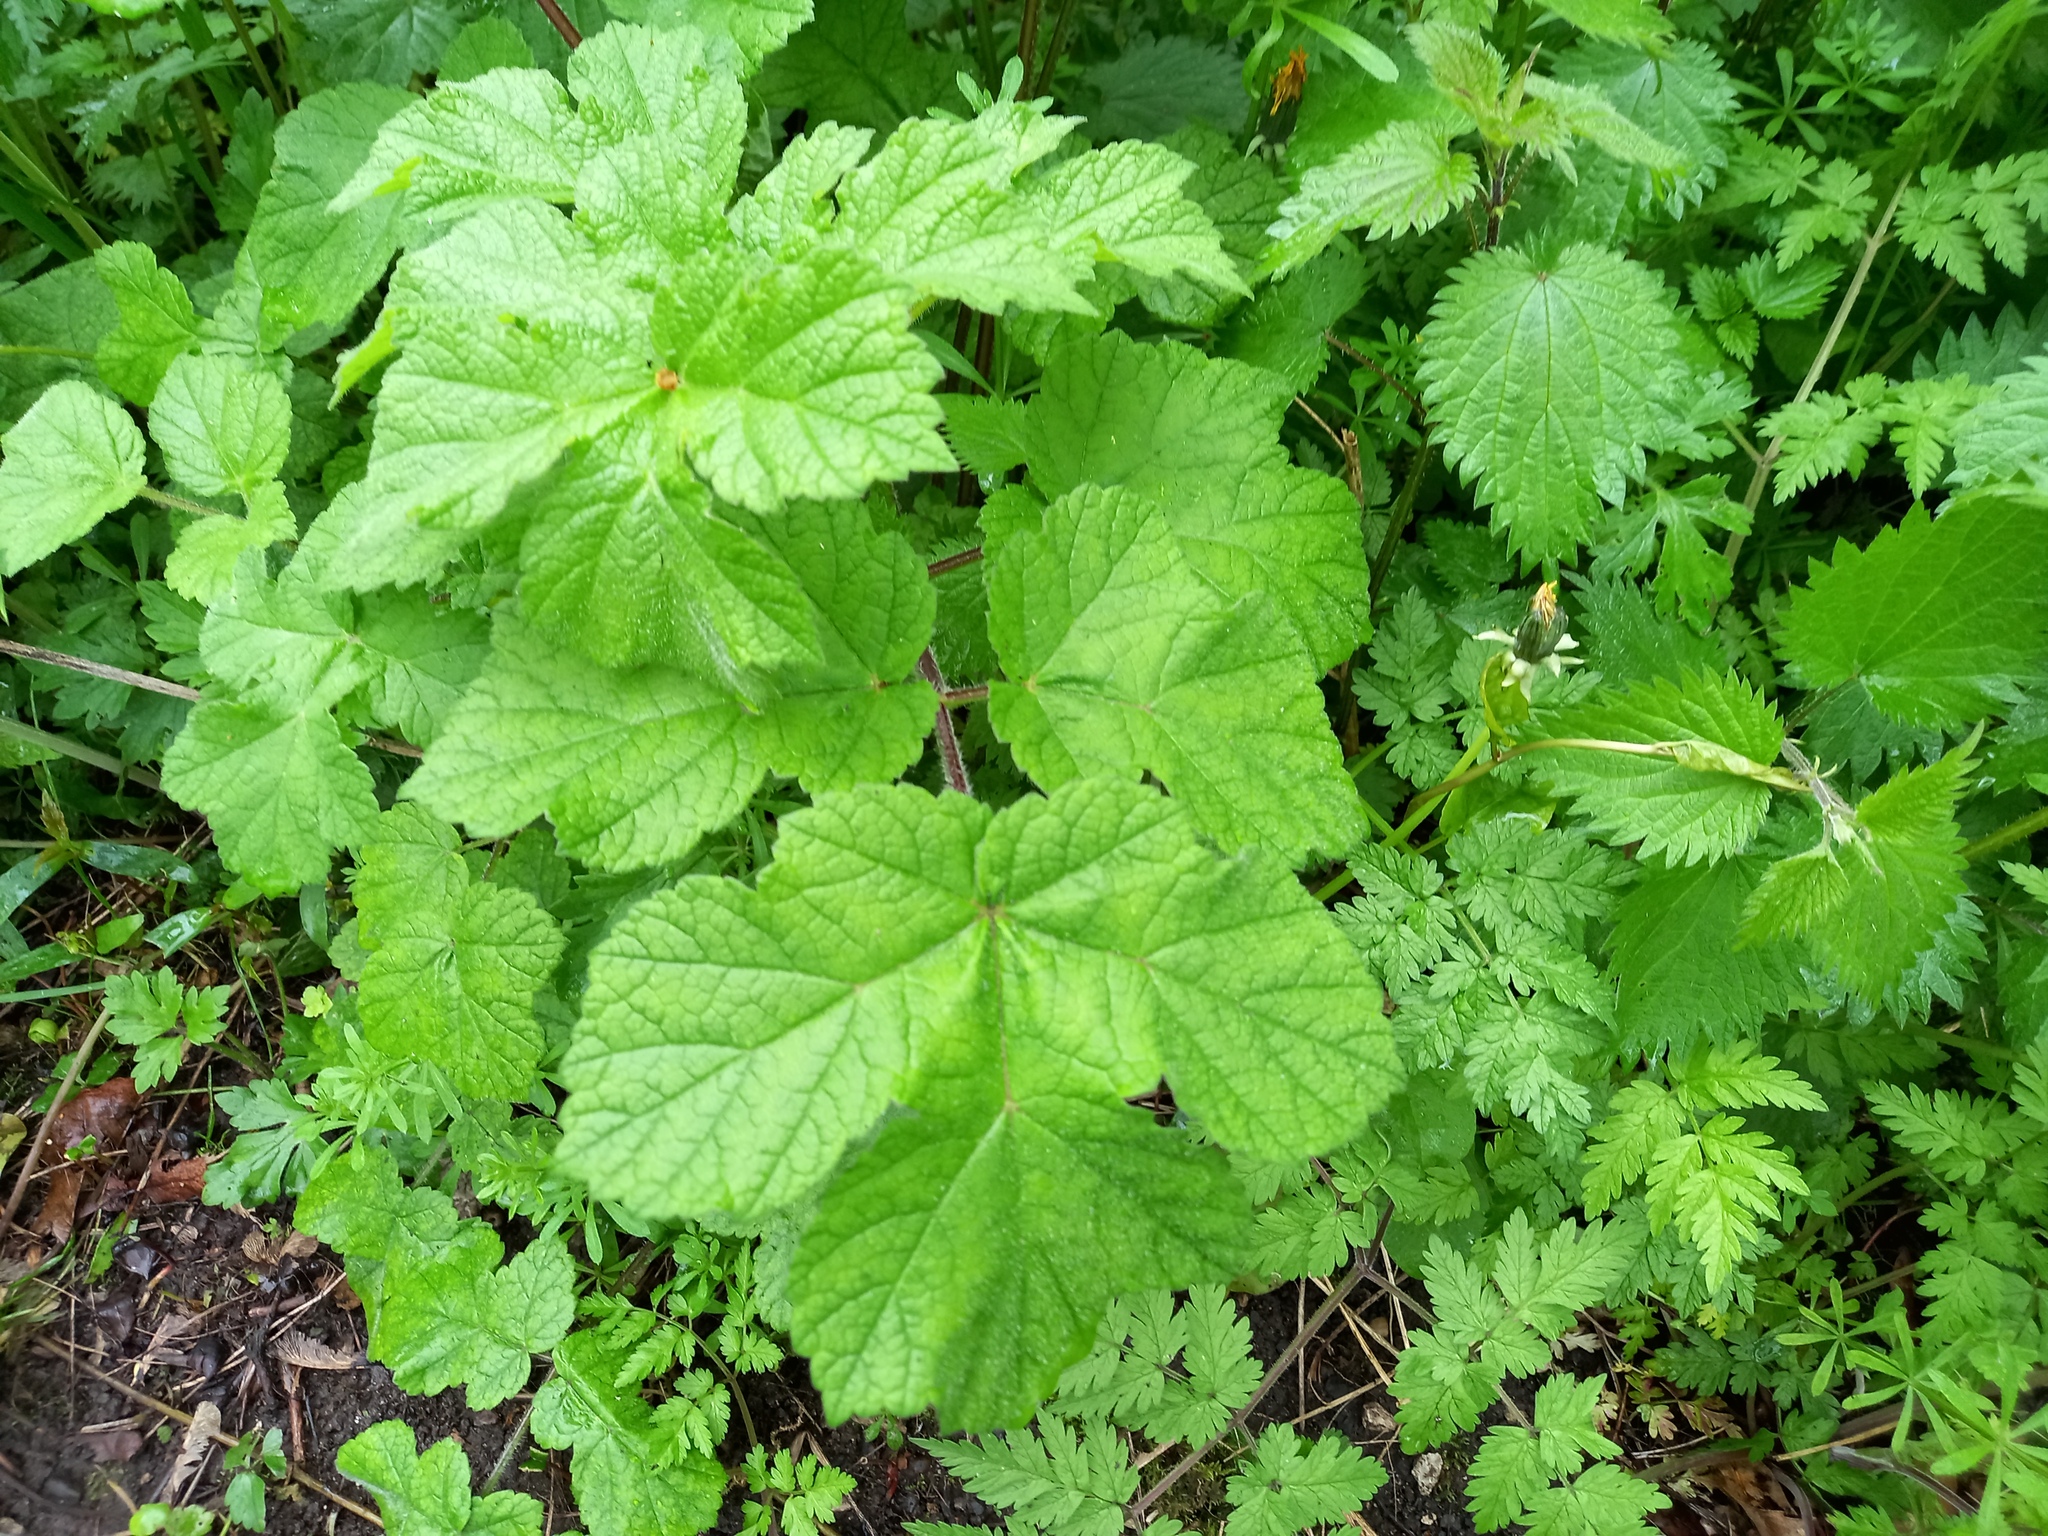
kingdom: Plantae
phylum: Tracheophyta
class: Magnoliopsida
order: Apiales
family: Apiaceae
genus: Heracleum
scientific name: Heracleum sphondylium
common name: Hogweed
